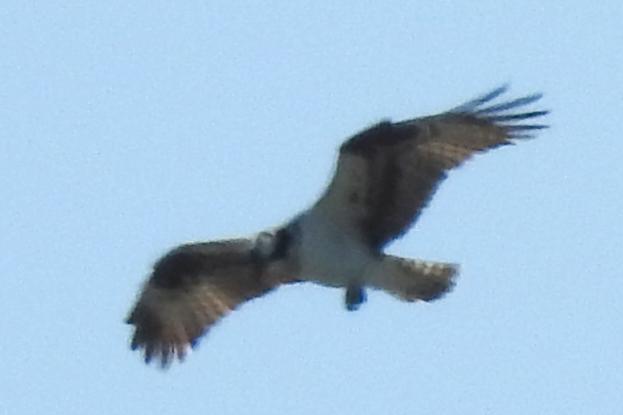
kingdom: Animalia
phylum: Chordata
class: Aves
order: Accipitriformes
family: Pandionidae
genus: Pandion
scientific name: Pandion haliaetus
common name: Osprey
